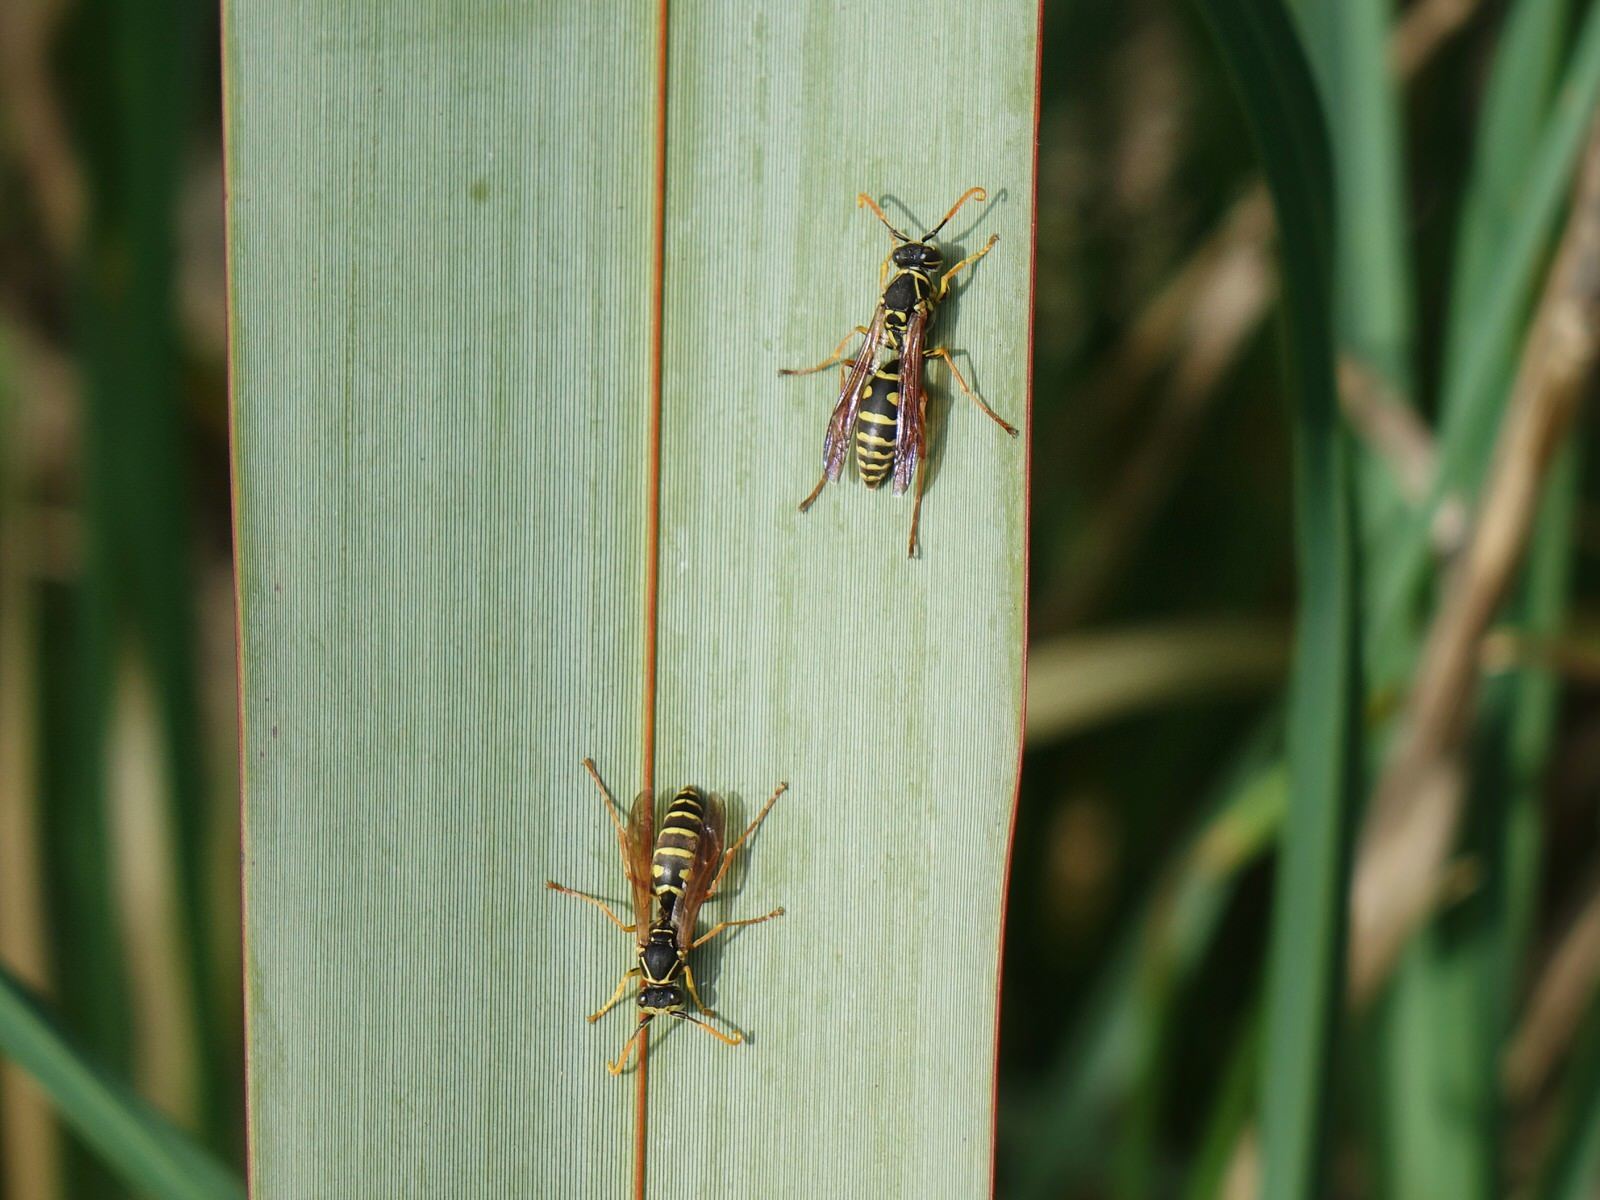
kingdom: Animalia
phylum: Arthropoda
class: Insecta
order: Hymenoptera
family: Eumenidae
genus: Polistes
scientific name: Polistes chinensis
